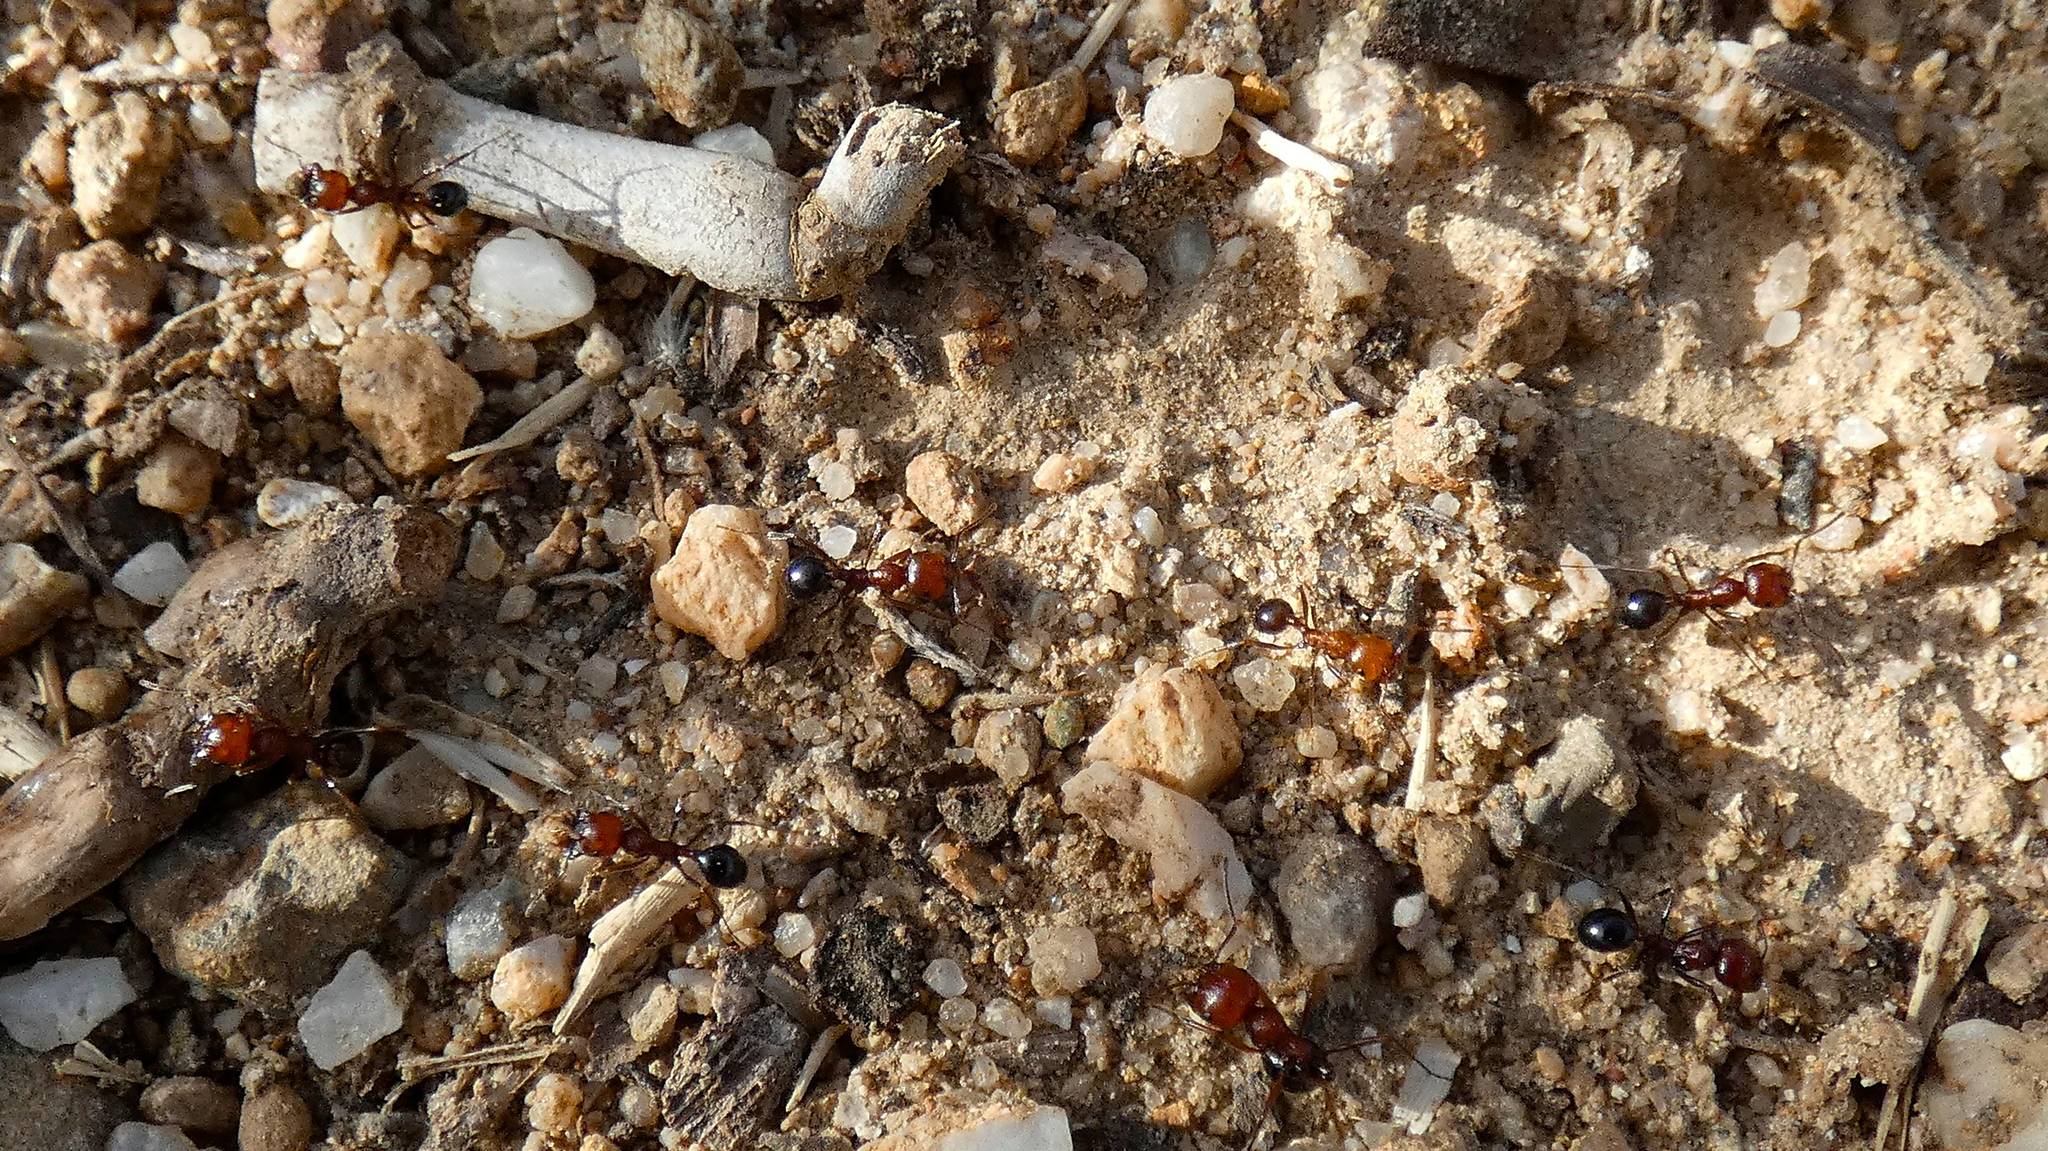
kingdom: Animalia
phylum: Arthropoda
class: Insecta
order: Hymenoptera
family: Formicidae
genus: Messor
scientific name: Messor minor
